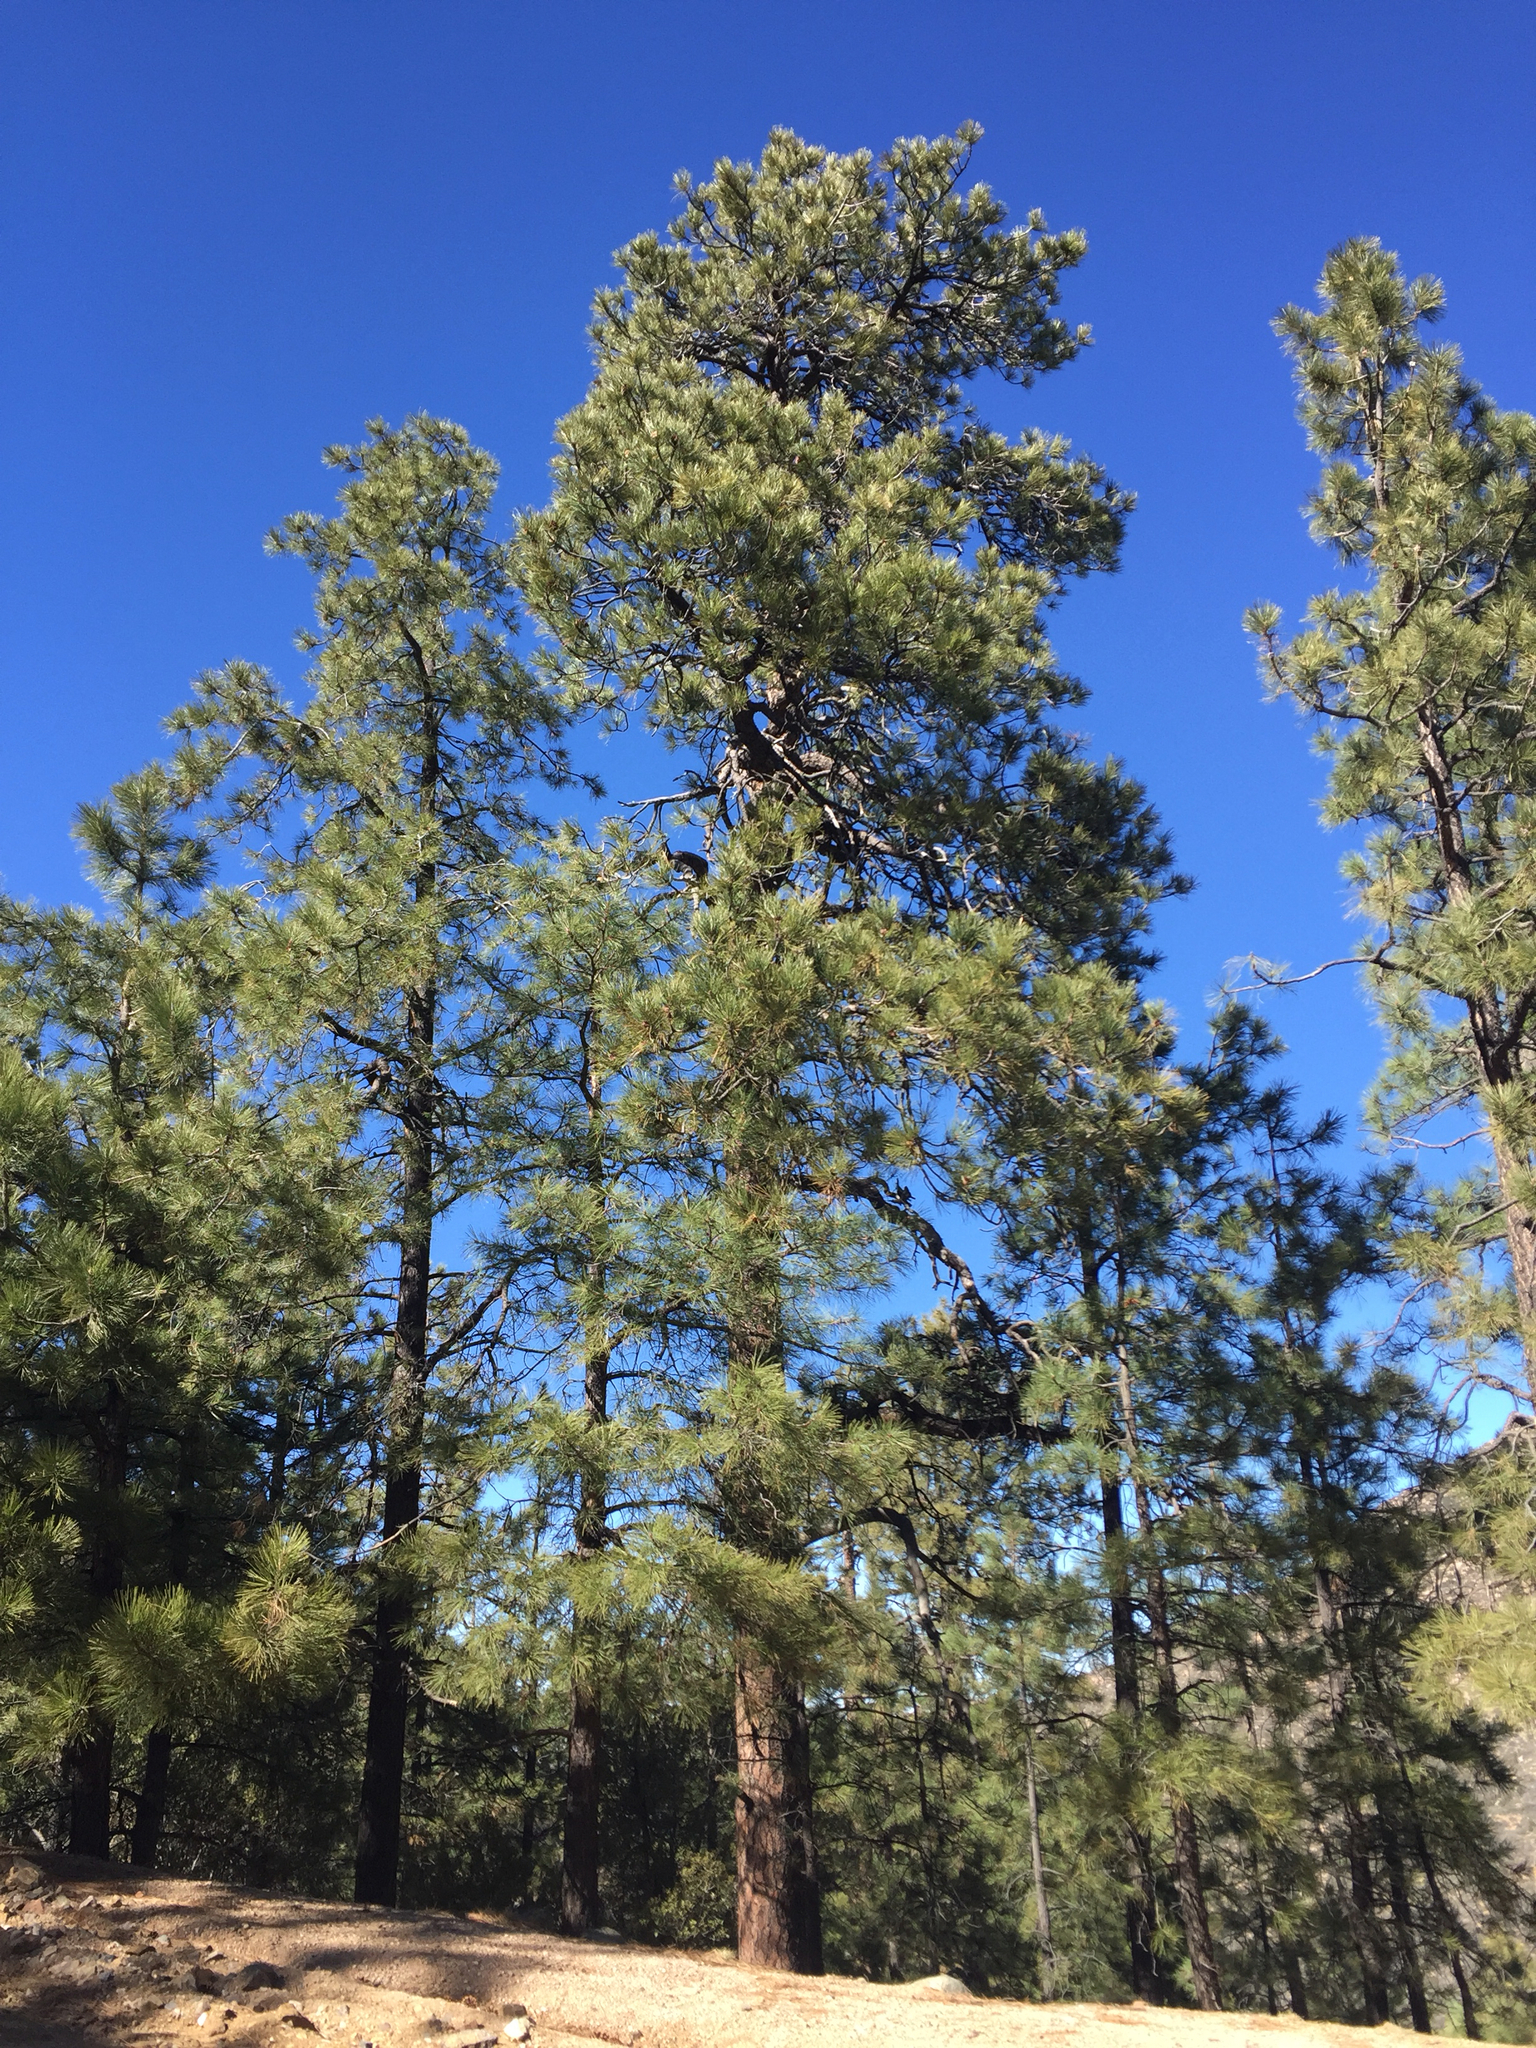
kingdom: Plantae
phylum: Tracheophyta
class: Pinopsida
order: Pinales
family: Pinaceae
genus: Pinus
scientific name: Pinus ponderosa
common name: Western yellow-pine
